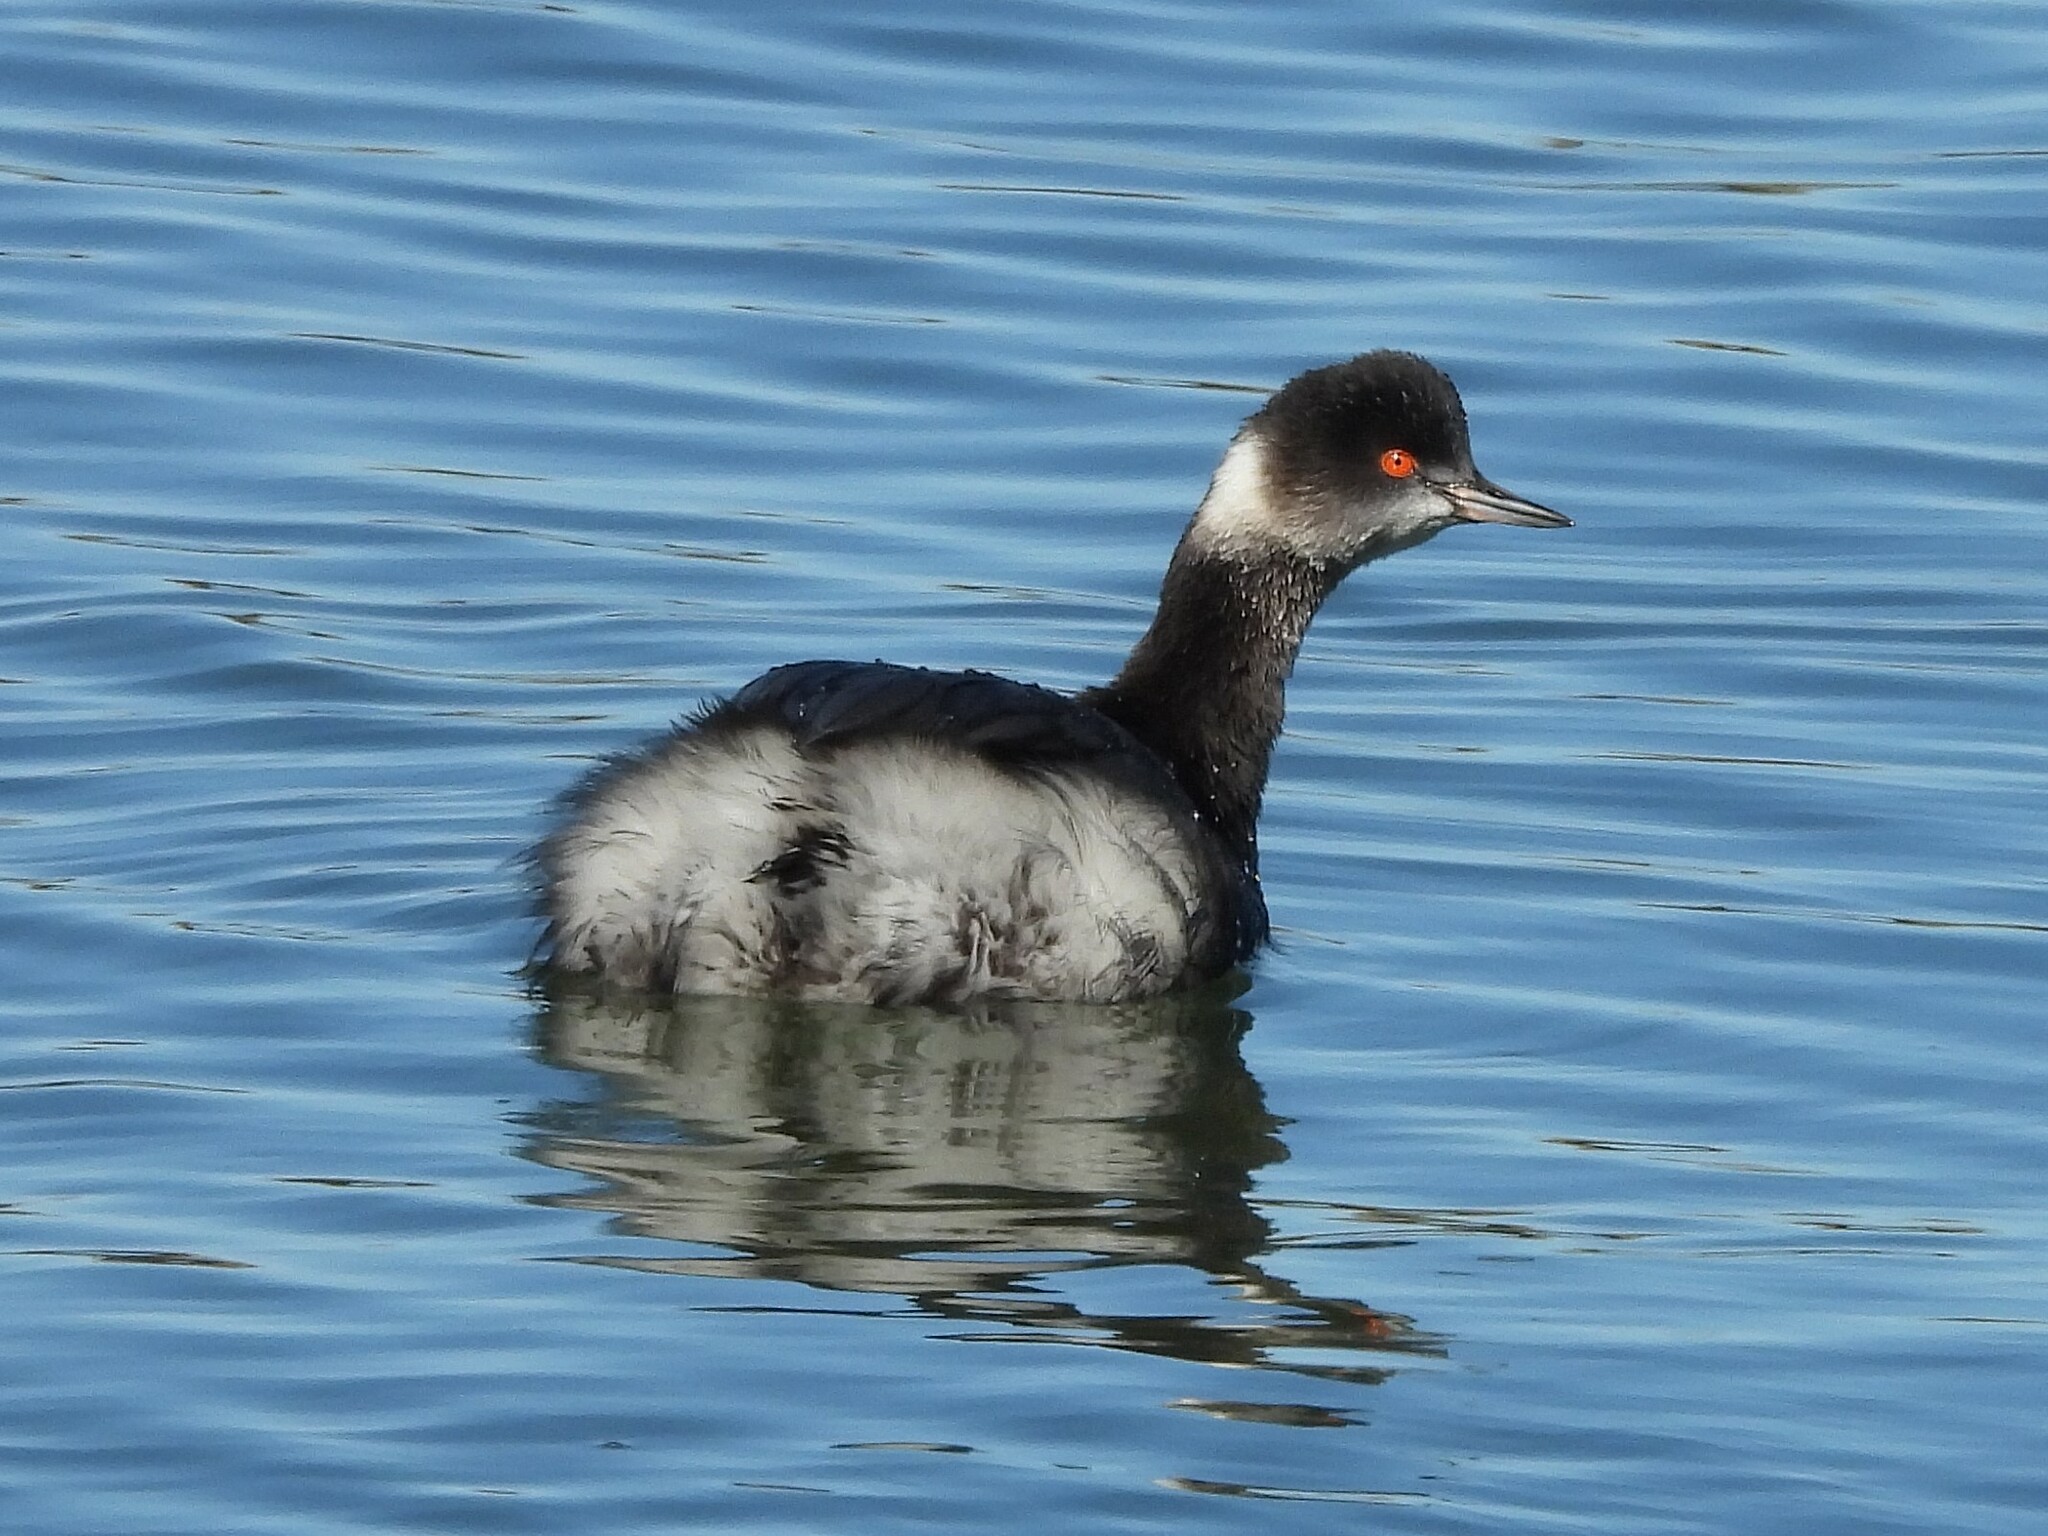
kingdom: Animalia
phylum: Chordata
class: Aves
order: Podicipediformes
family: Podicipedidae
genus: Podiceps
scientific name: Podiceps nigricollis
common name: Black-necked grebe
